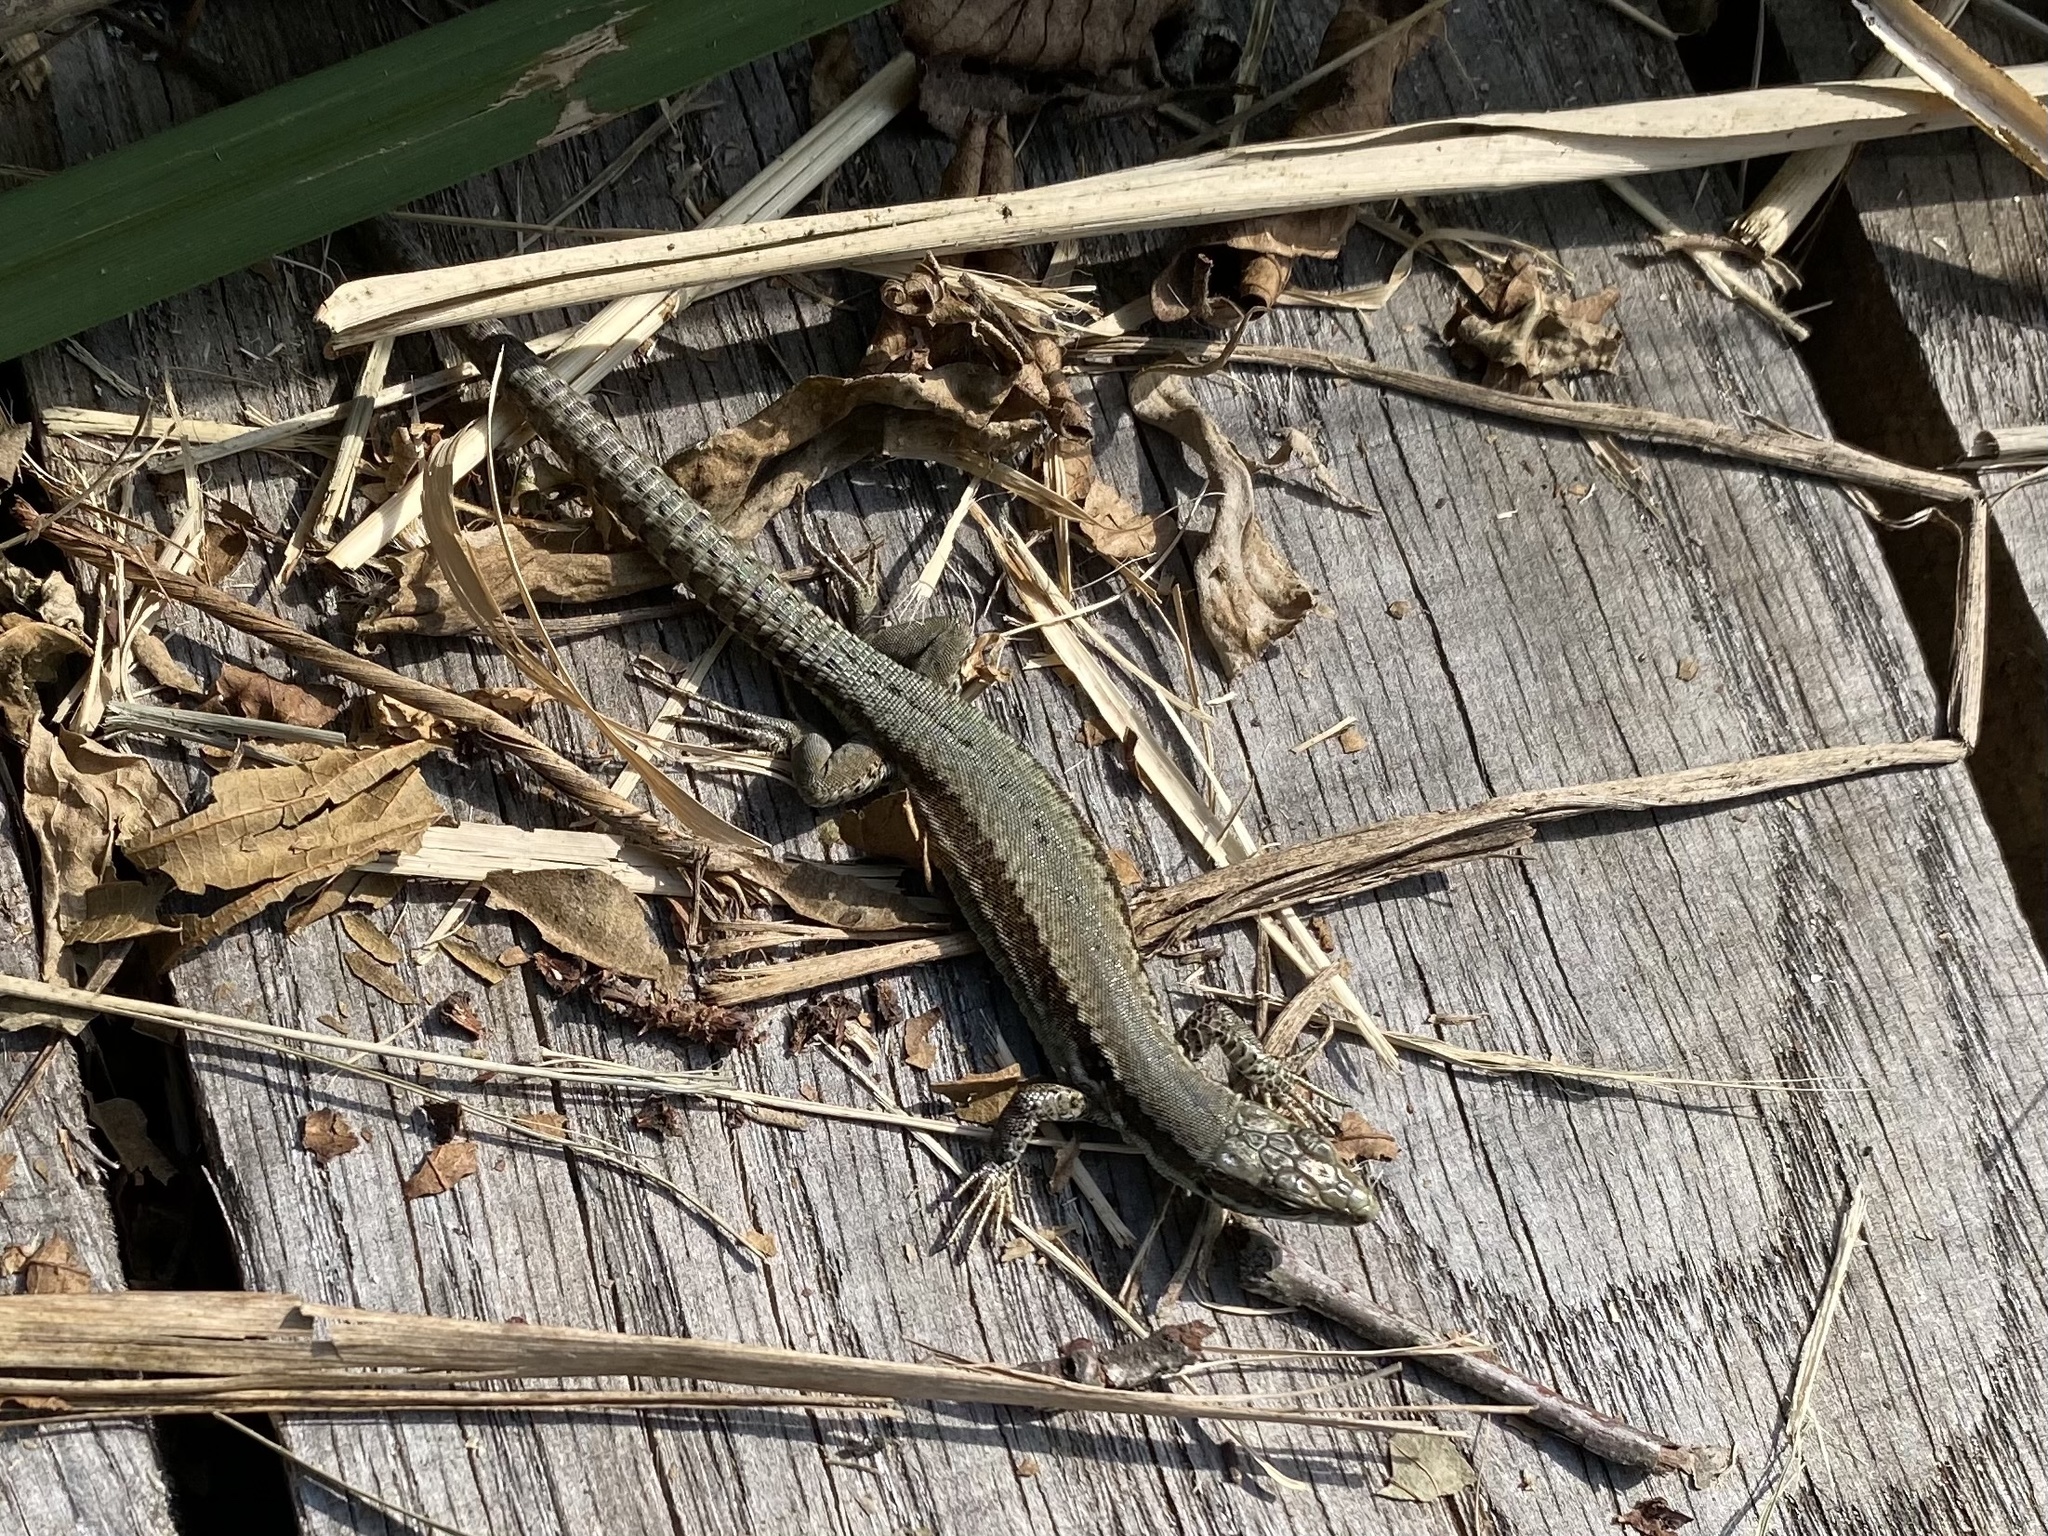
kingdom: Animalia
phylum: Chordata
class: Squamata
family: Lacertidae
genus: Podarcis
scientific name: Podarcis muralis
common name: Common wall lizard
